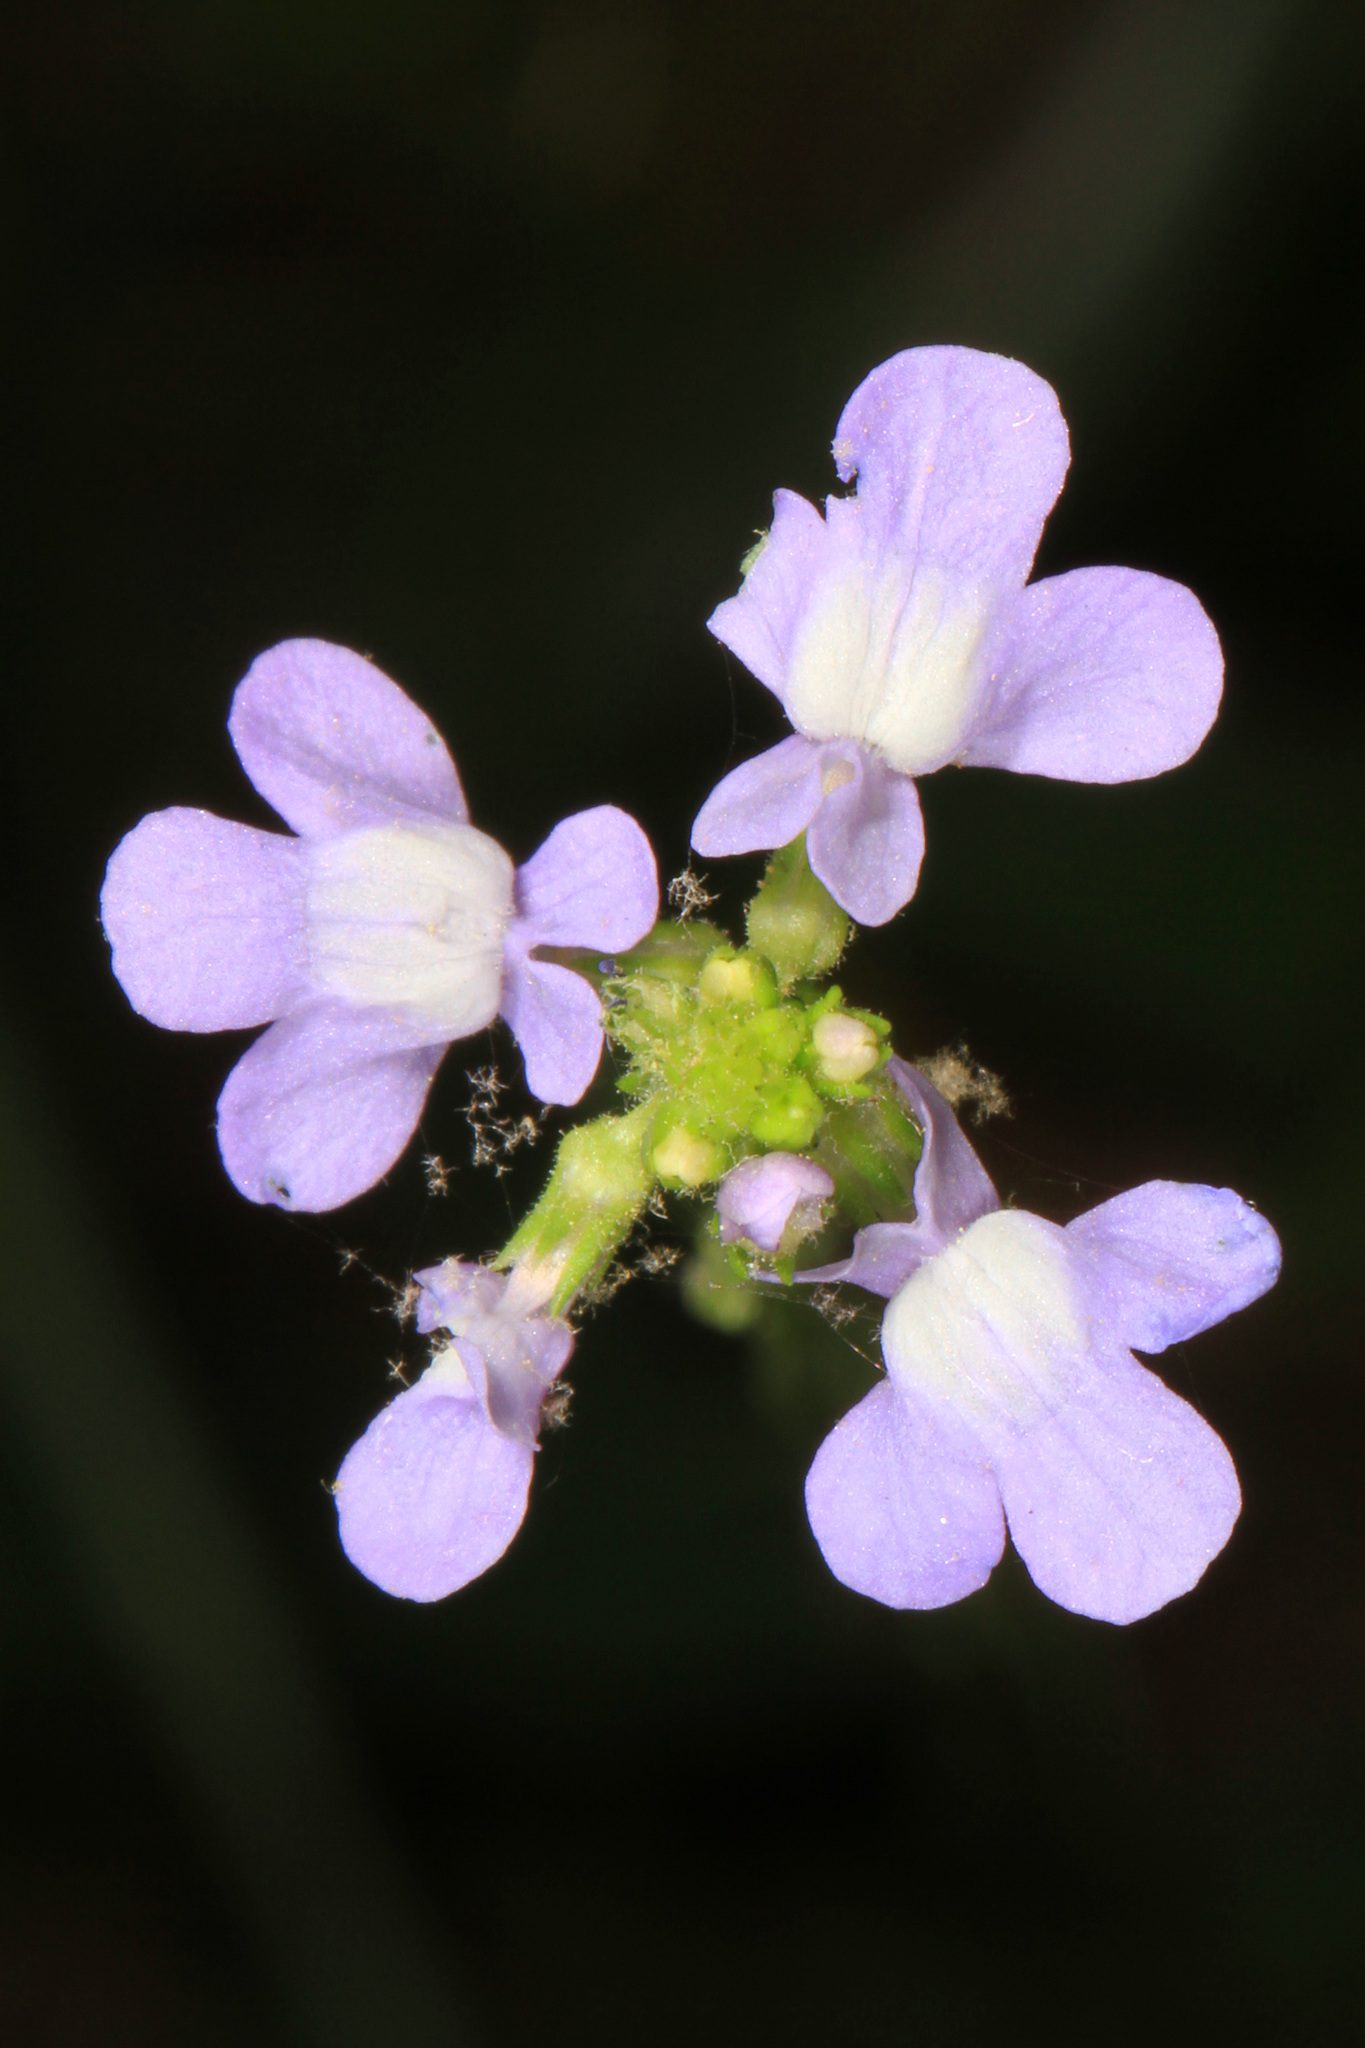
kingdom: Plantae
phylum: Tracheophyta
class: Magnoliopsida
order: Lamiales
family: Plantaginaceae
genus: Nuttallanthus
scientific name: Nuttallanthus canadensis
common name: Blue toadflax
